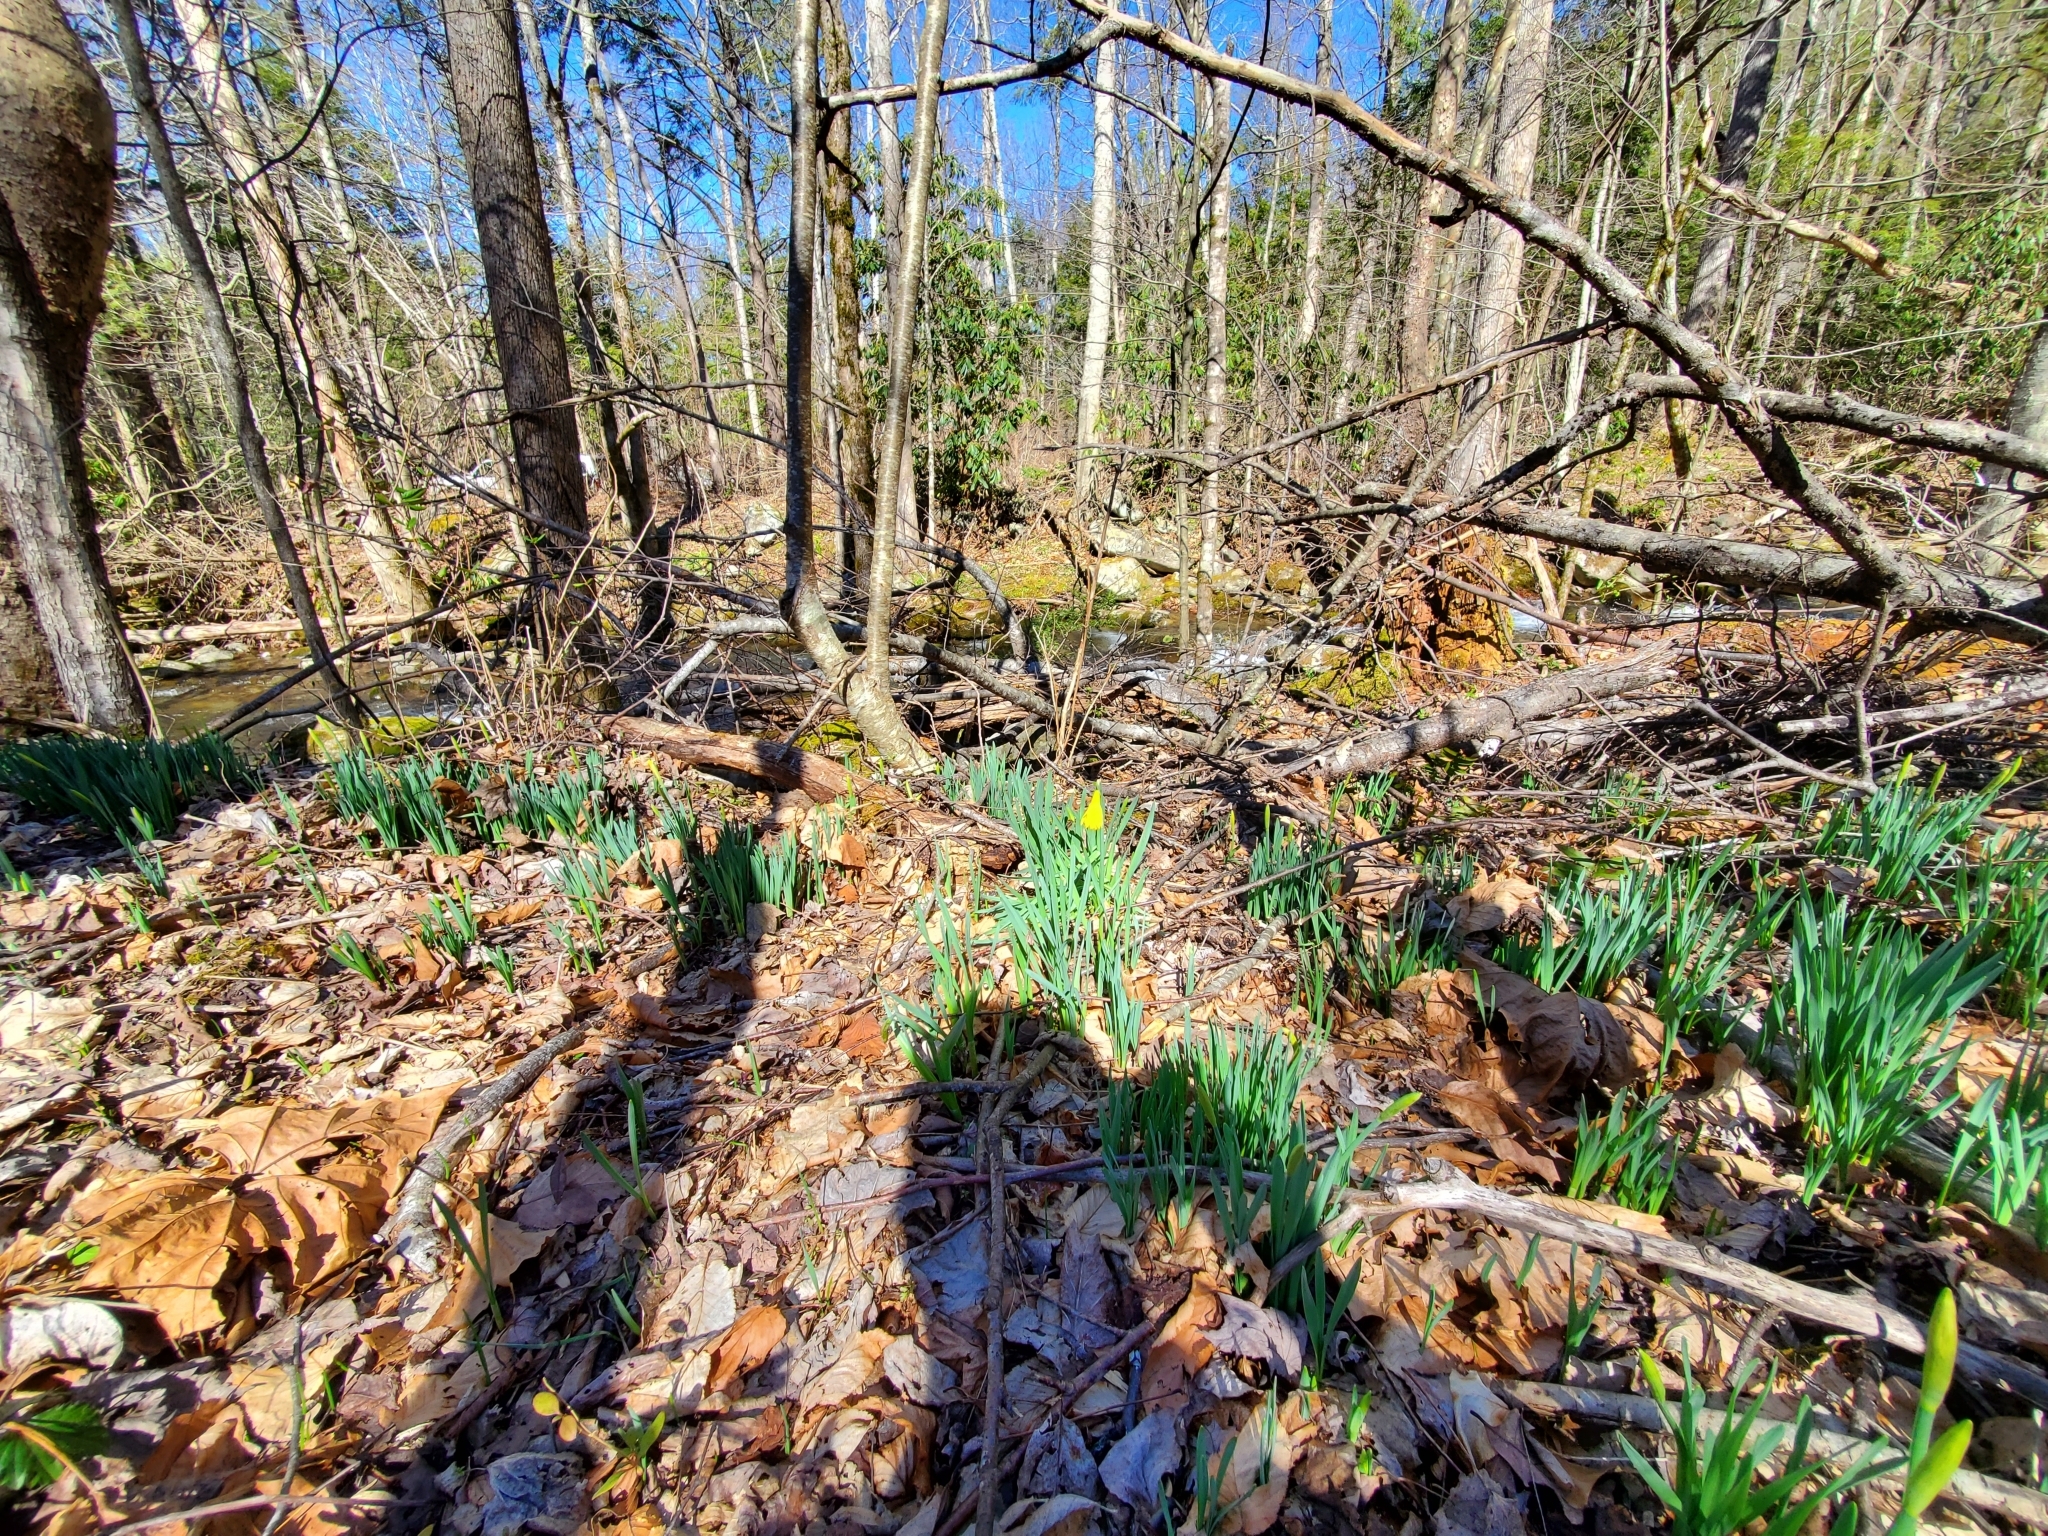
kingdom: Plantae
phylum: Tracheophyta
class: Liliopsida
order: Asparagales
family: Amaryllidaceae
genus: Narcissus
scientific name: Narcissus pseudonarcissus
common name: Daffodil
